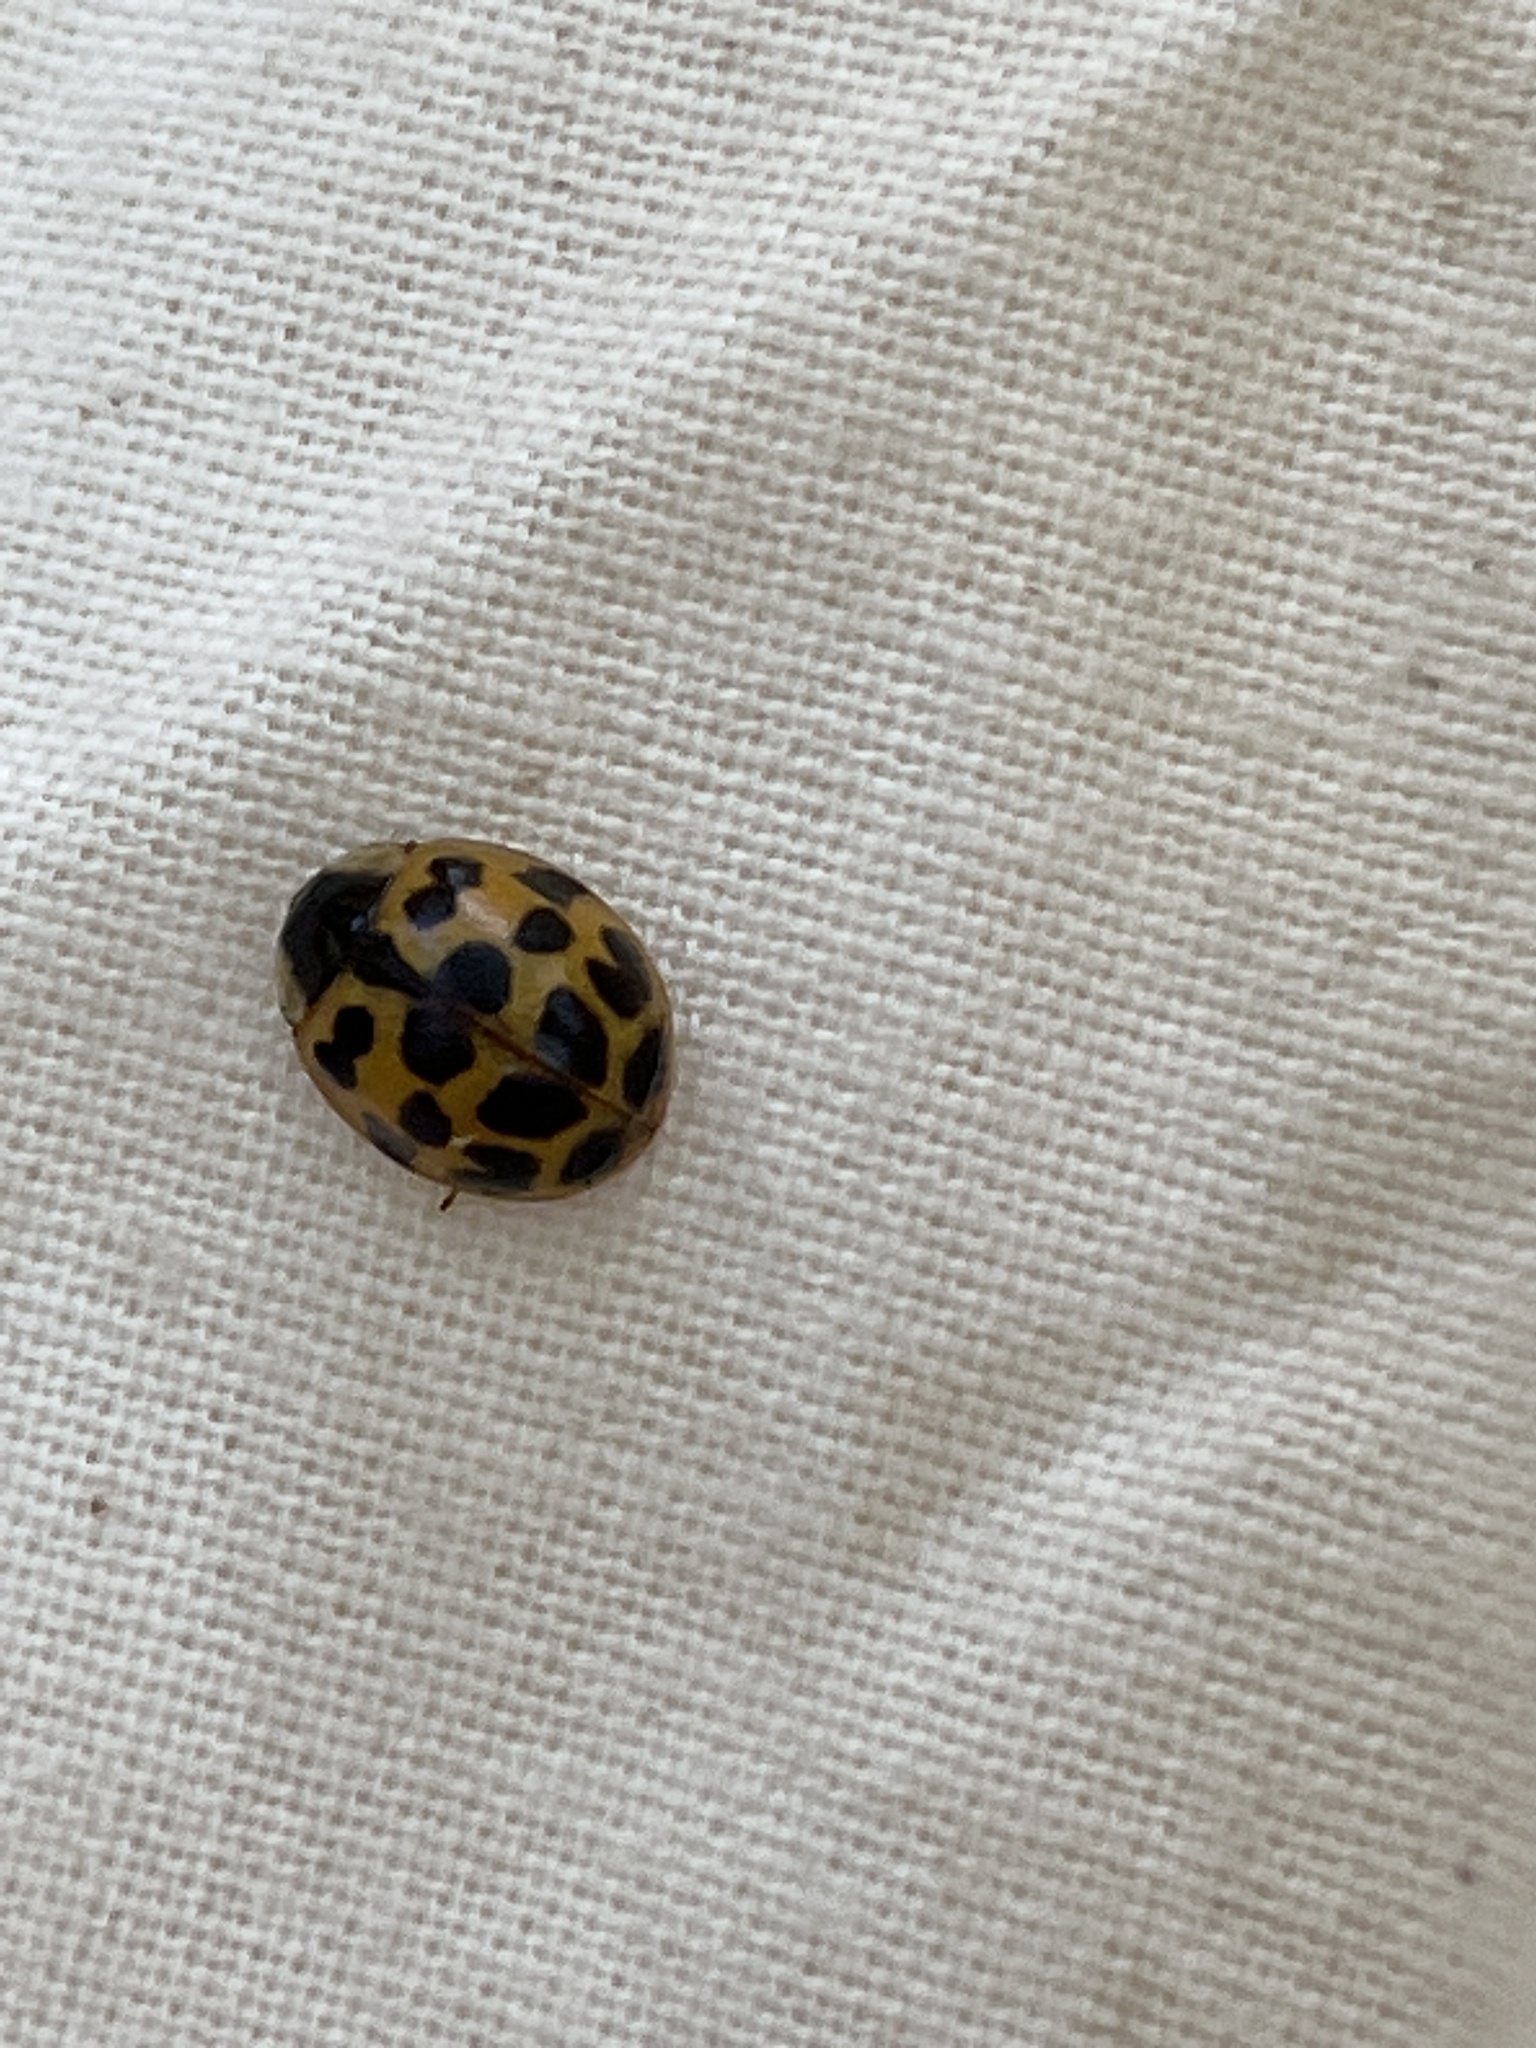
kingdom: Animalia
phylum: Arthropoda
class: Insecta
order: Coleoptera
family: Coccinellidae
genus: Harmonia
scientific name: Harmonia axyridis
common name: Harlequin ladybird
